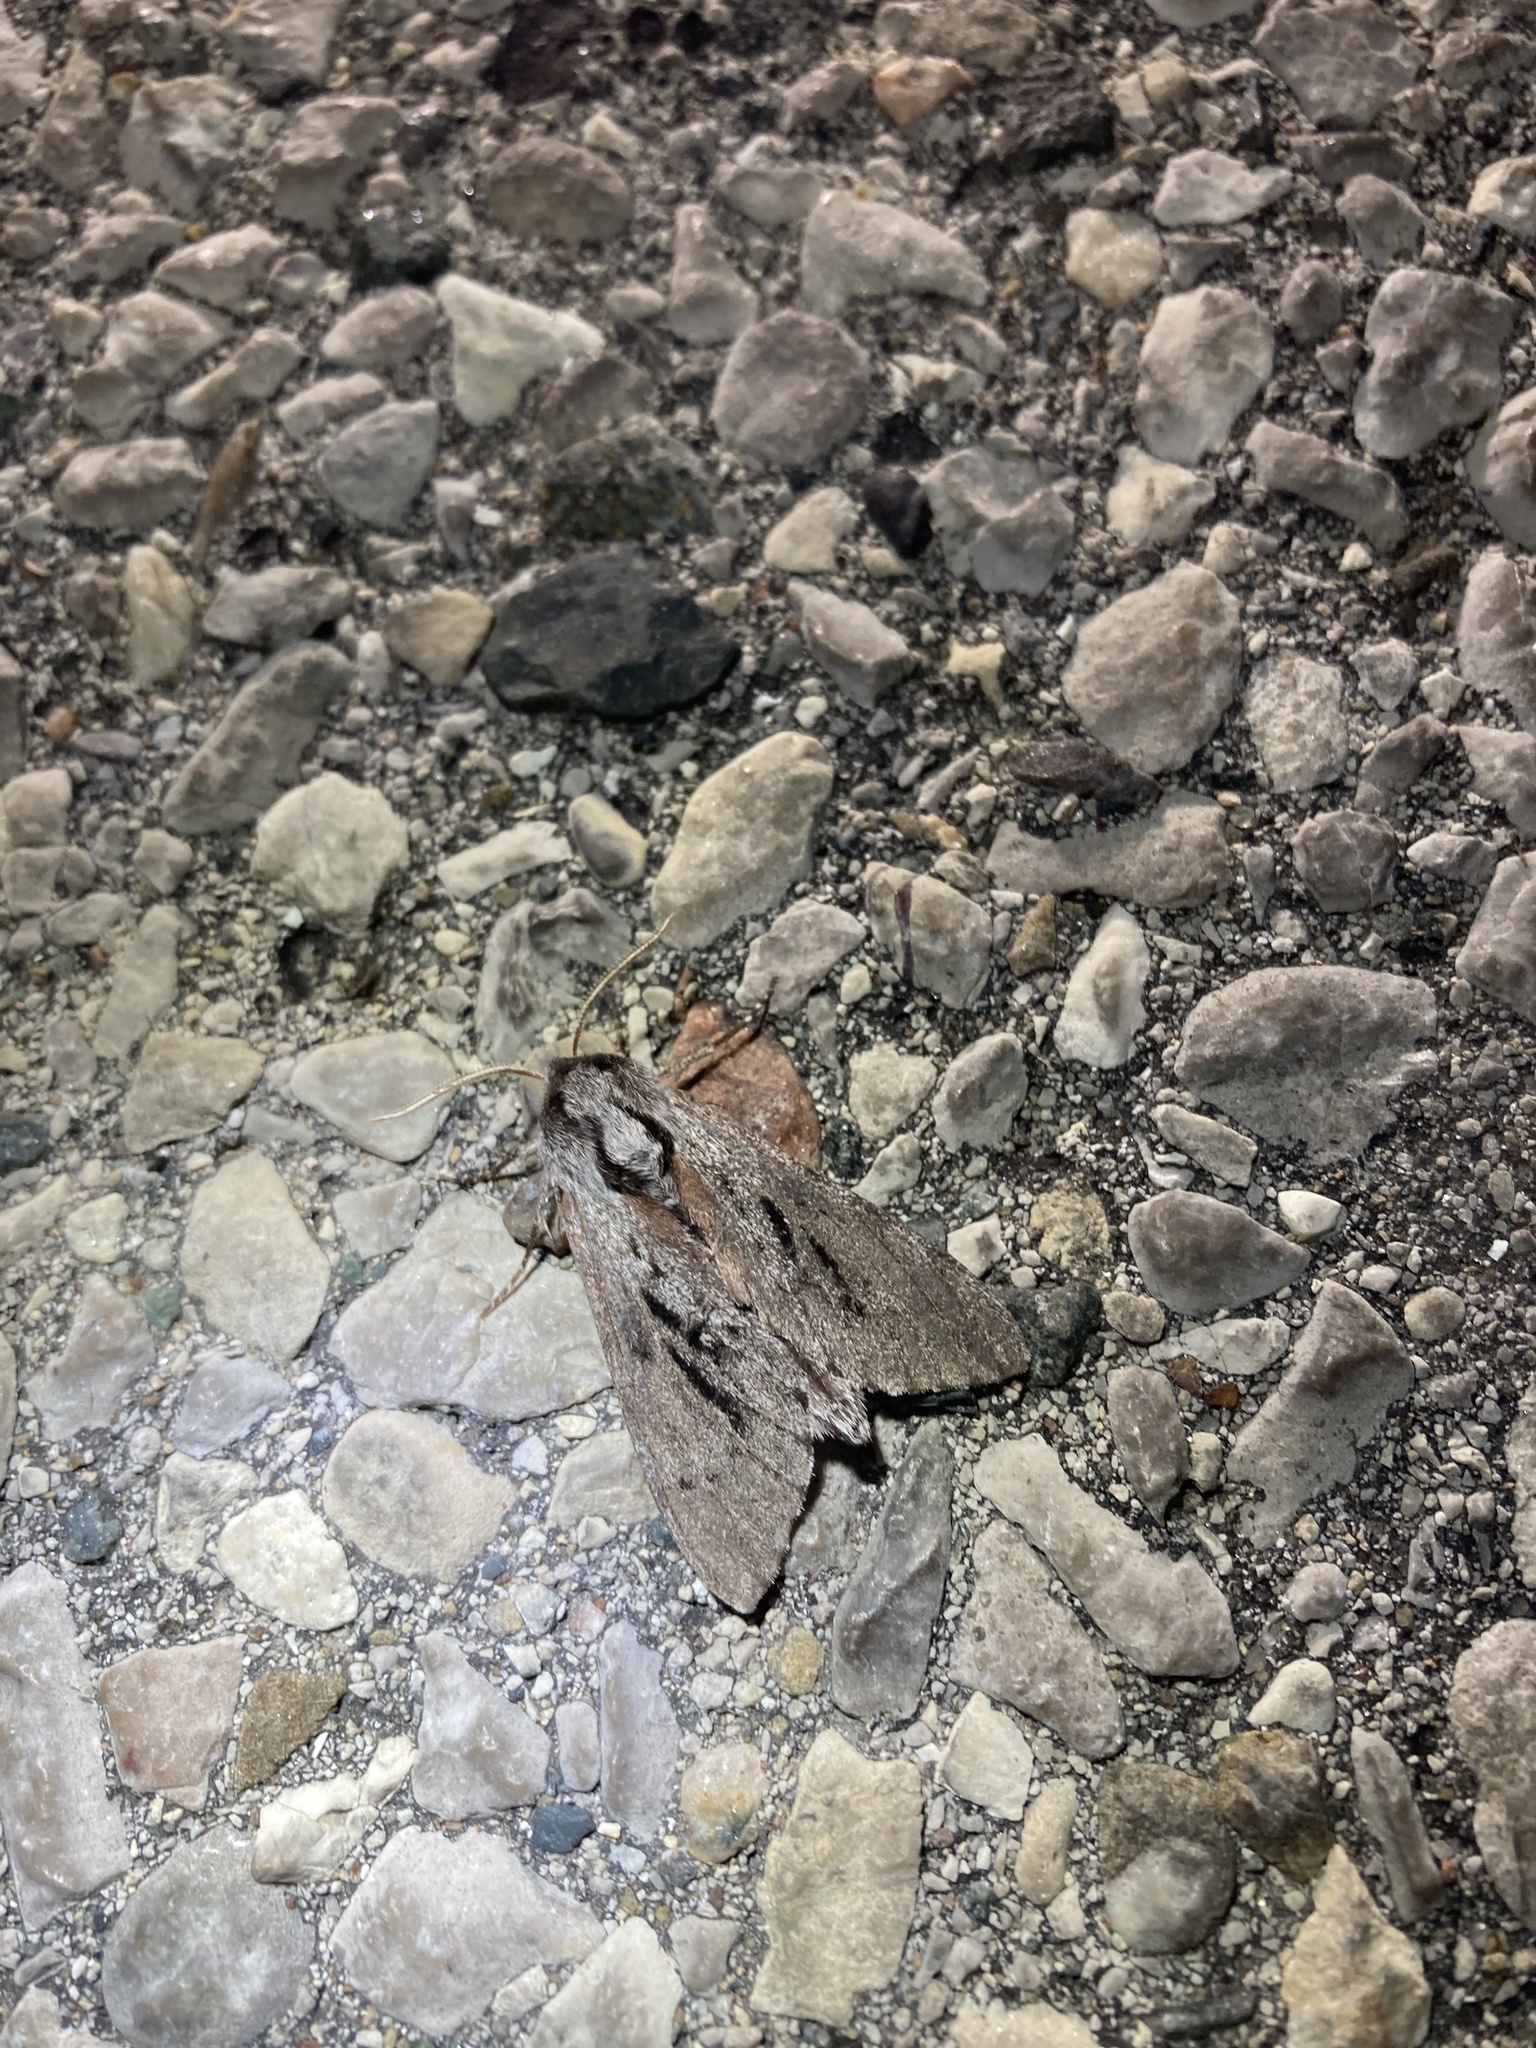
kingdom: Animalia
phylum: Arthropoda
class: Insecta
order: Lepidoptera
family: Sphingidae
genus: Lapara
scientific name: Lapara bombycoides
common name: Northern pine sphinx
